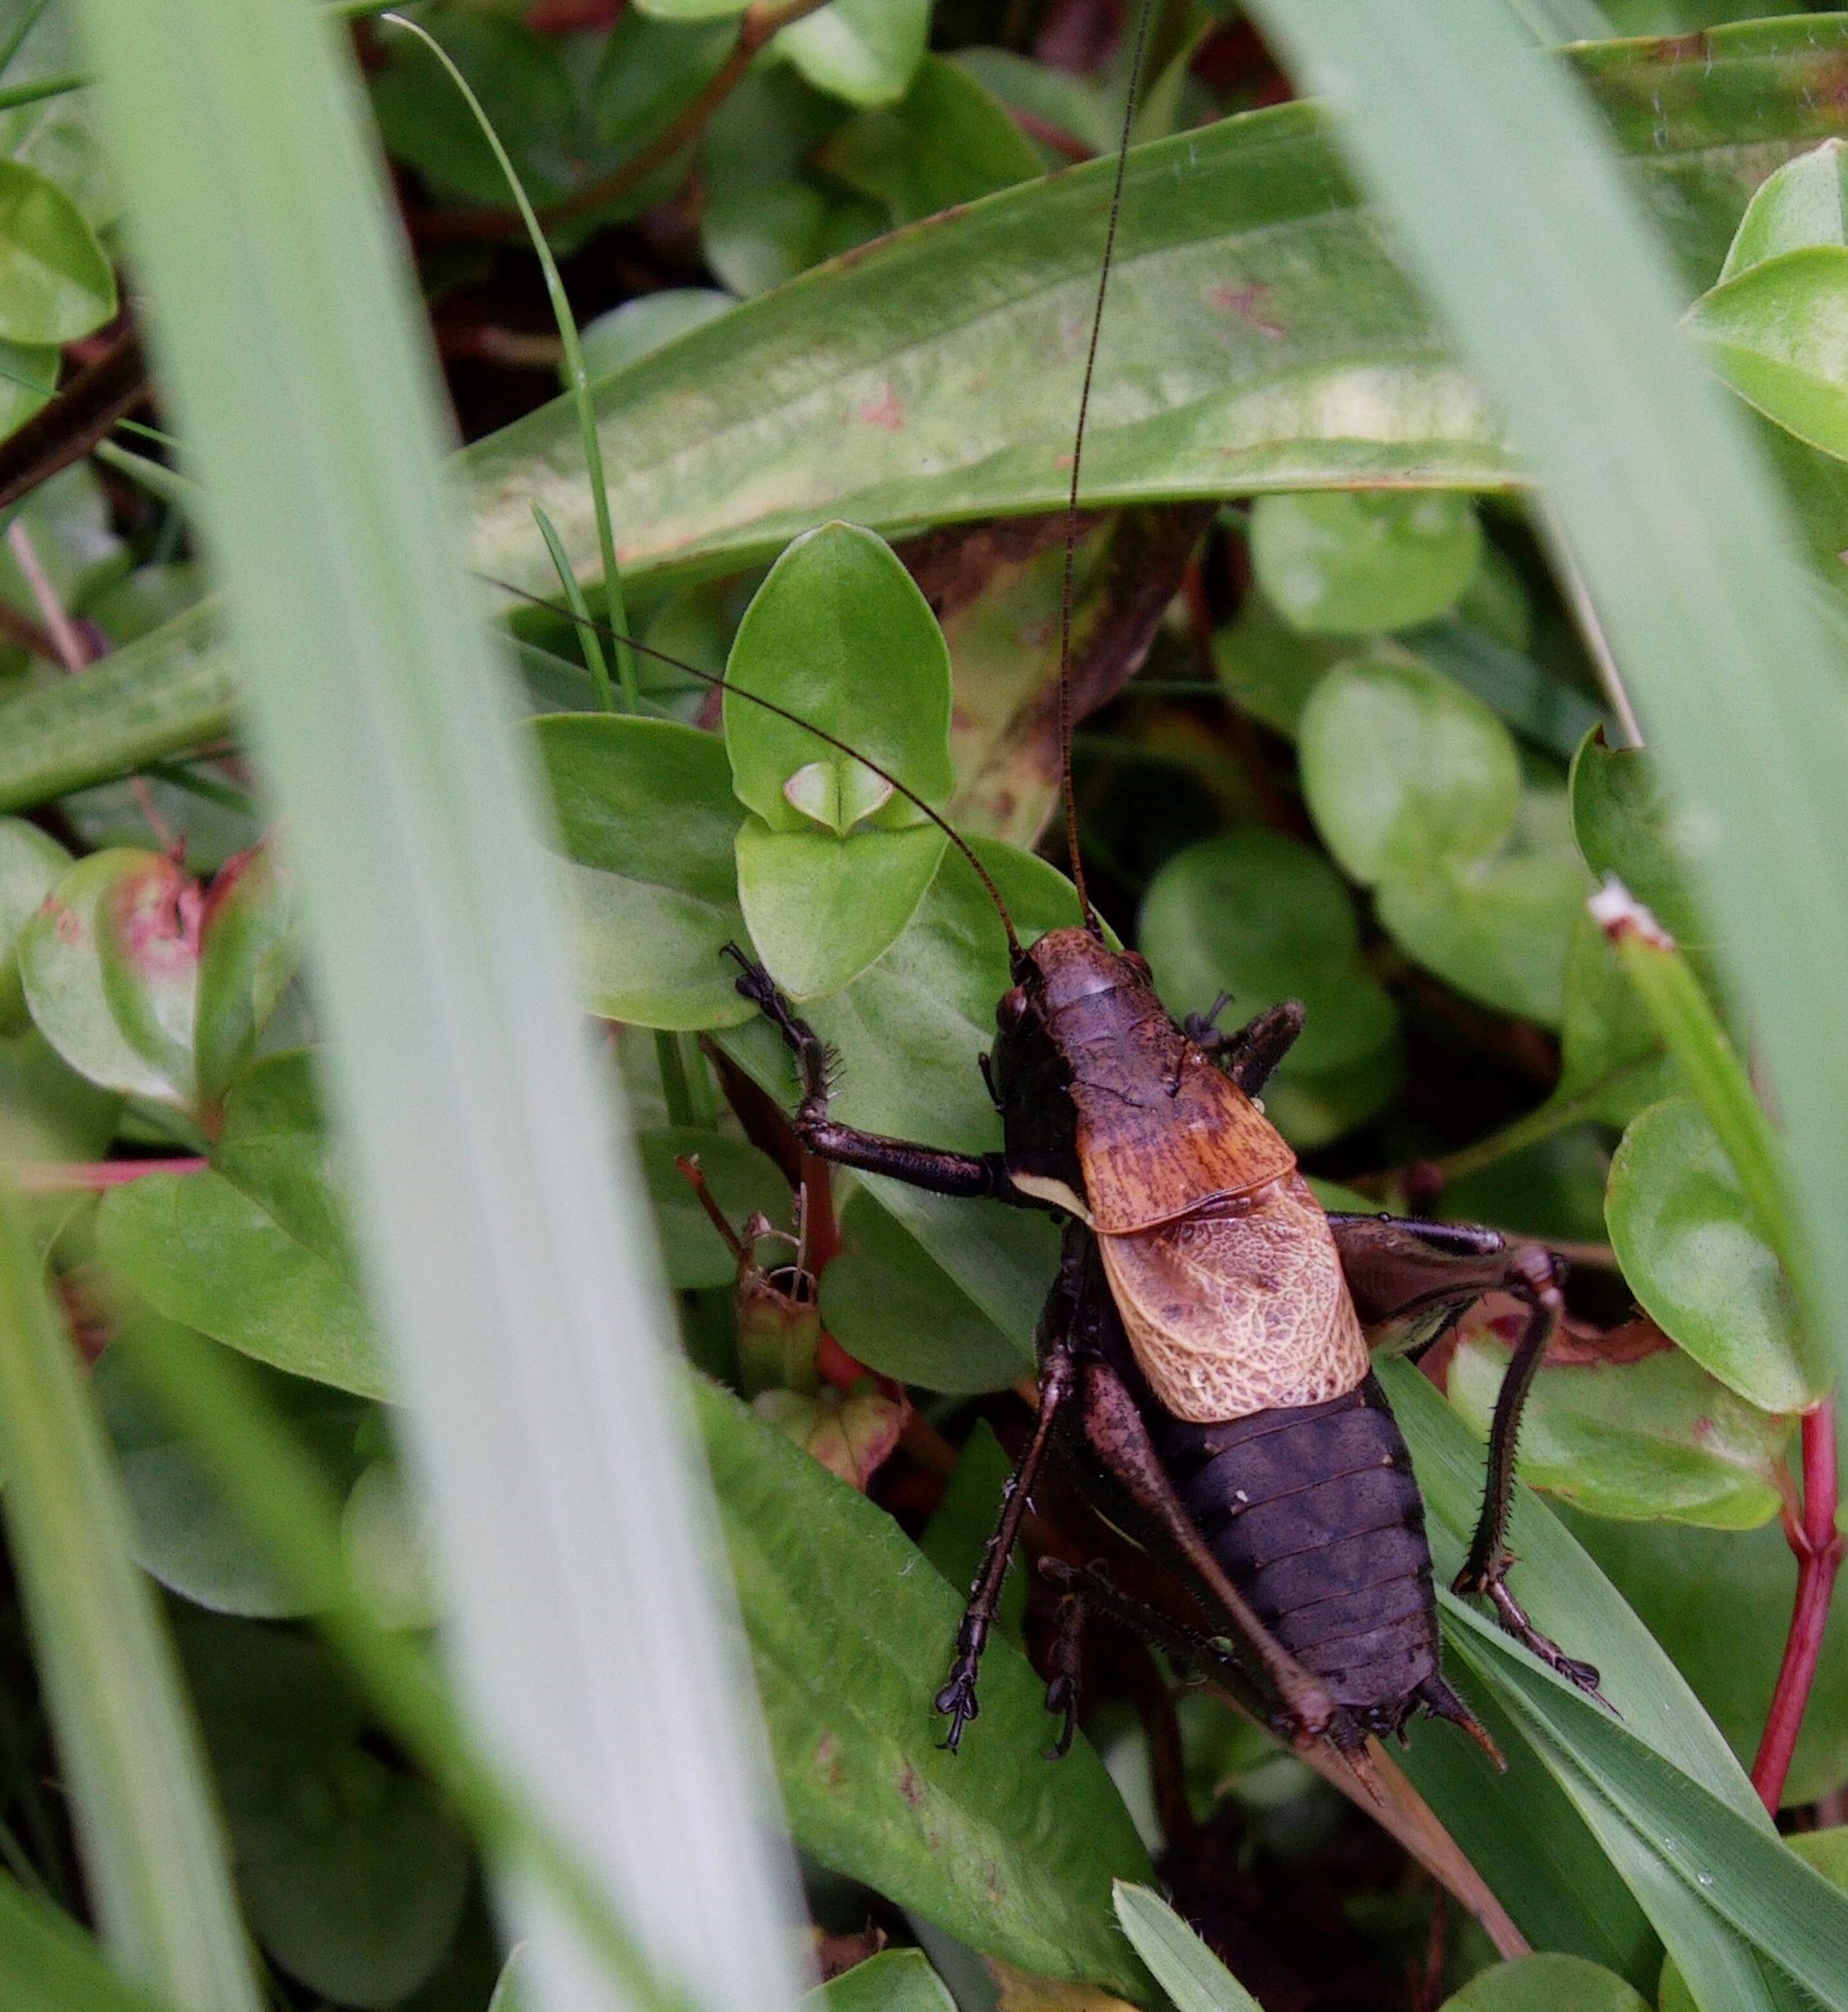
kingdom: Animalia
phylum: Arthropoda
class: Insecta
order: Orthoptera
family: Tettigoniidae
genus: Pholidoptera
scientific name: Pholidoptera aptera
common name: Alpine dark bush-cricket
